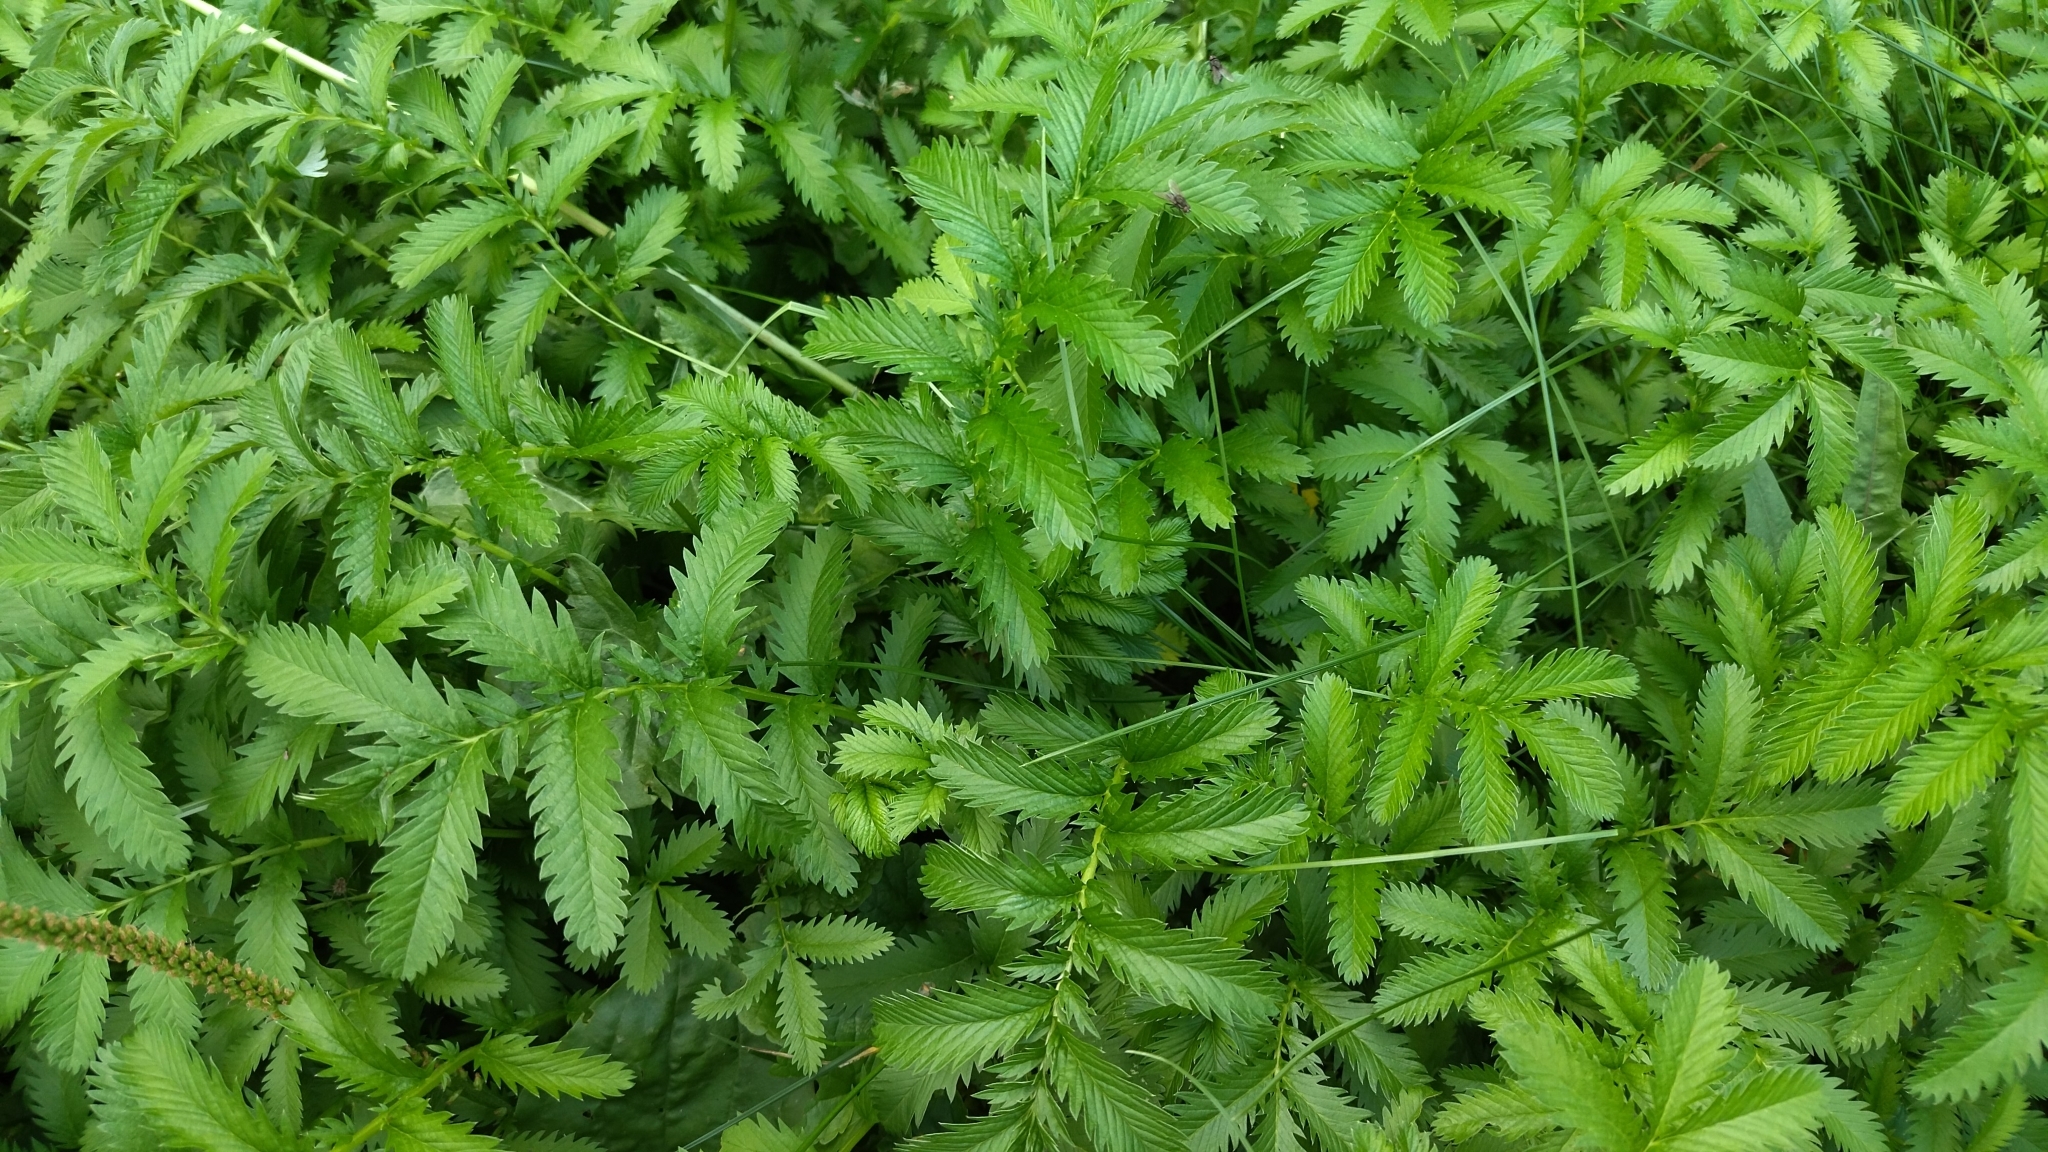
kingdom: Plantae
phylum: Tracheophyta
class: Magnoliopsida
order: Rosales
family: Rosaceae
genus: Argentina
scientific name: Argentina anserina
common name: Common silverweed
